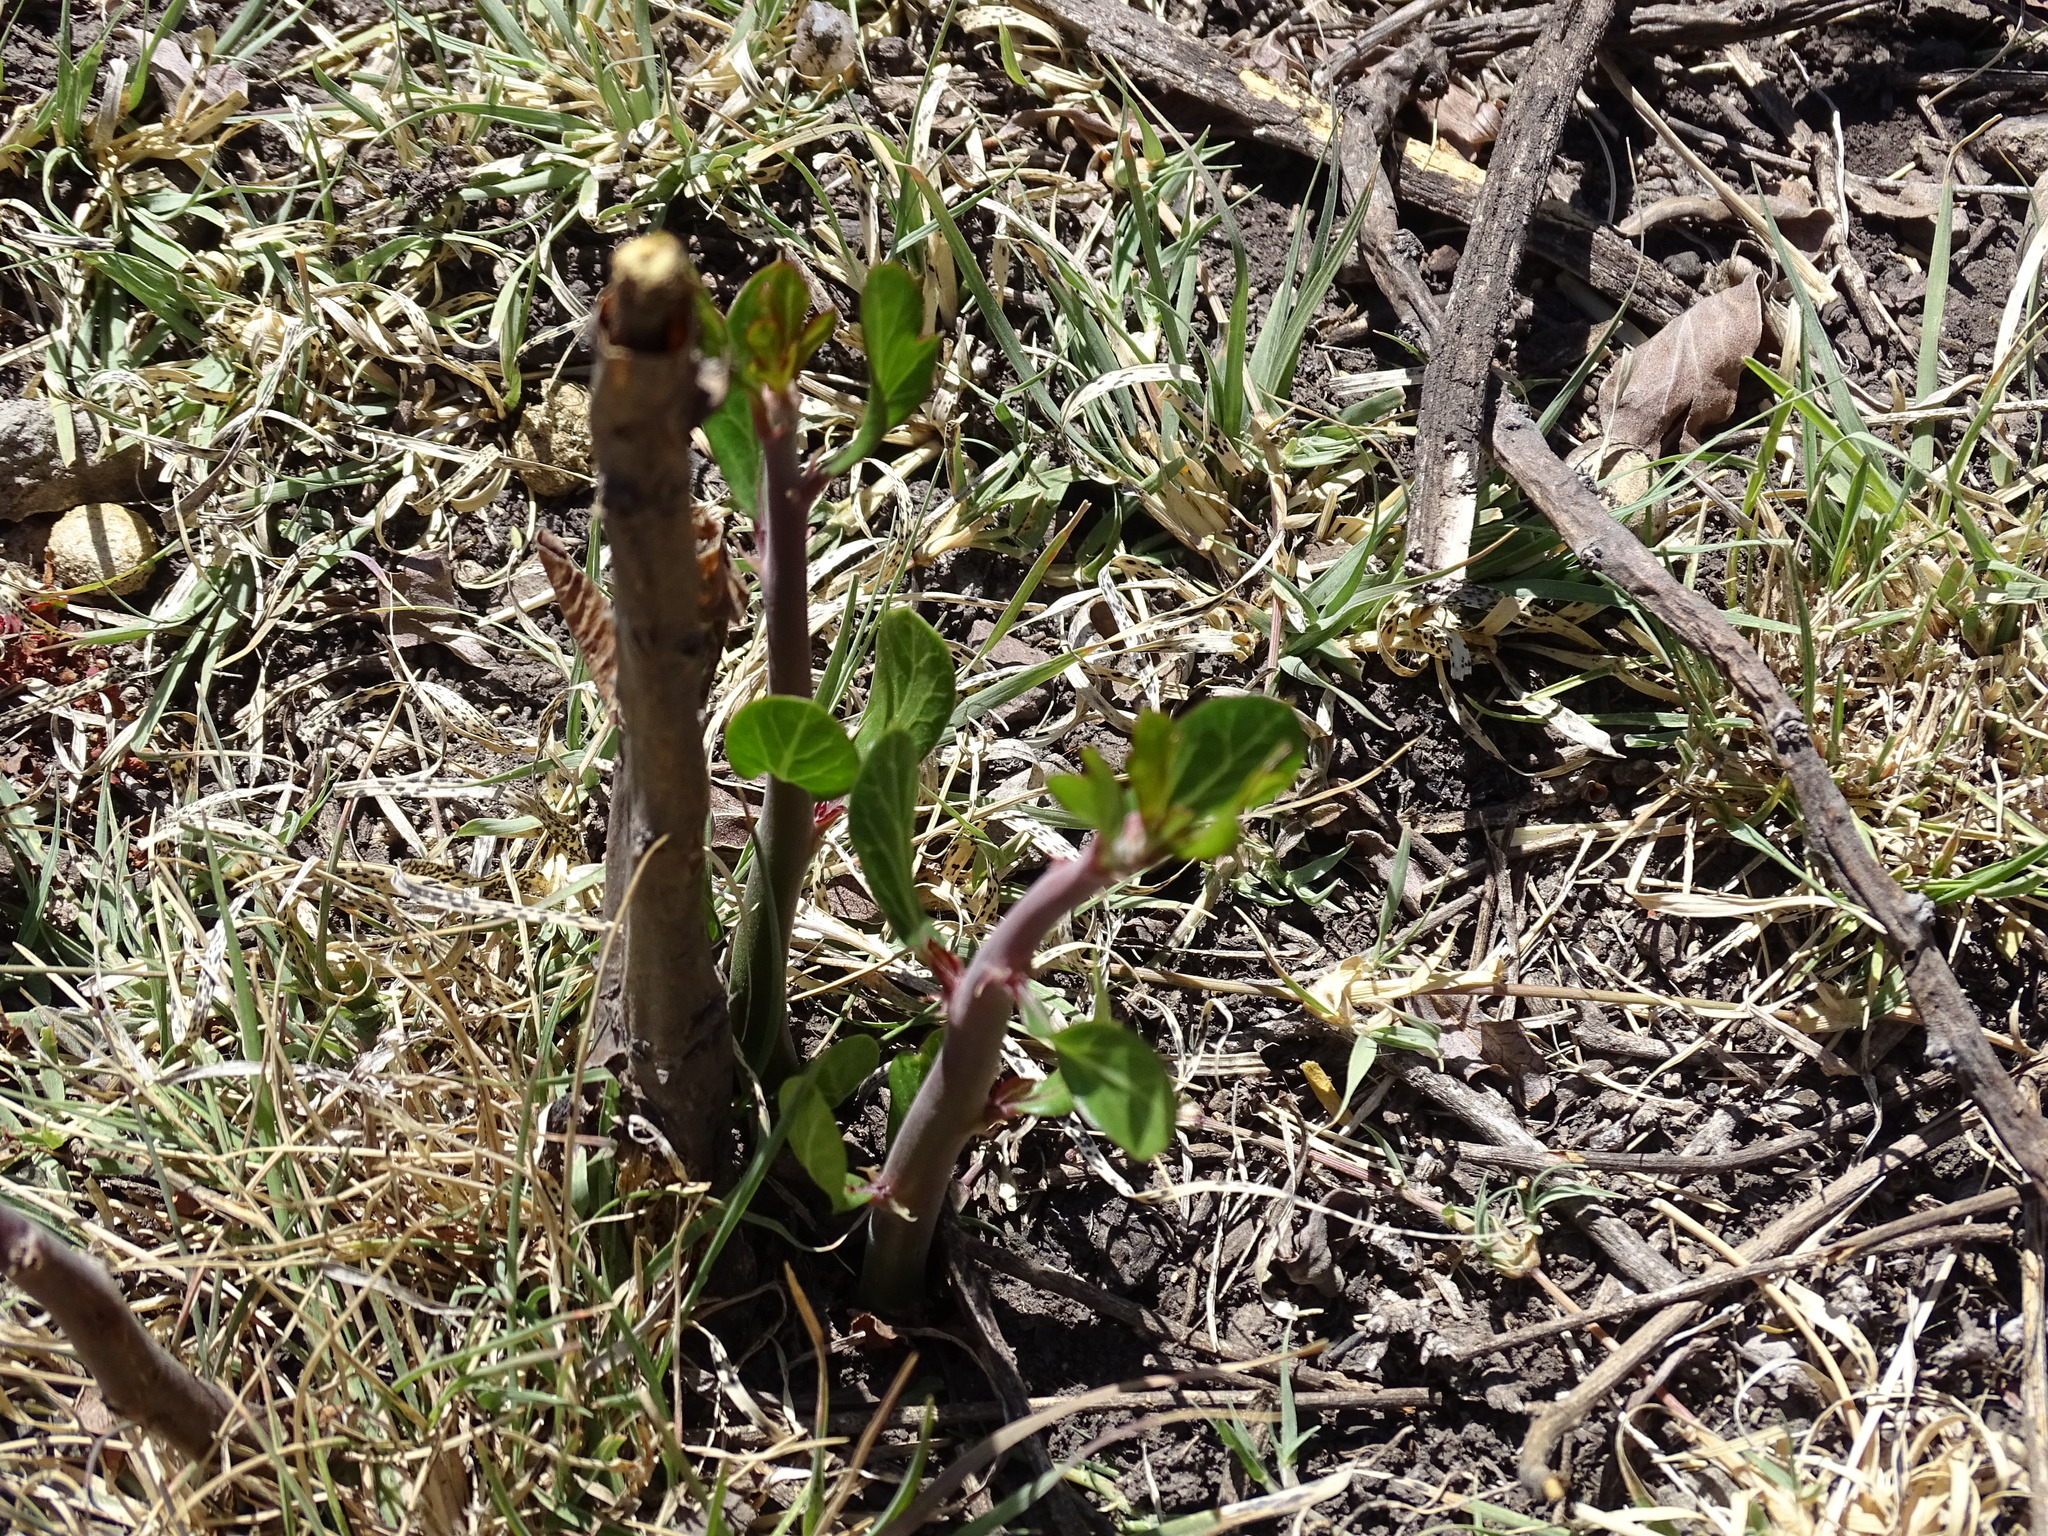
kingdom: Plantae
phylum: Tracheophyta
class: Magnoliopsida
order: Malpighiales
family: Euphorbiaceae
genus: Jatropha
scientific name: Jatropha dioica
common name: Leatherstem
